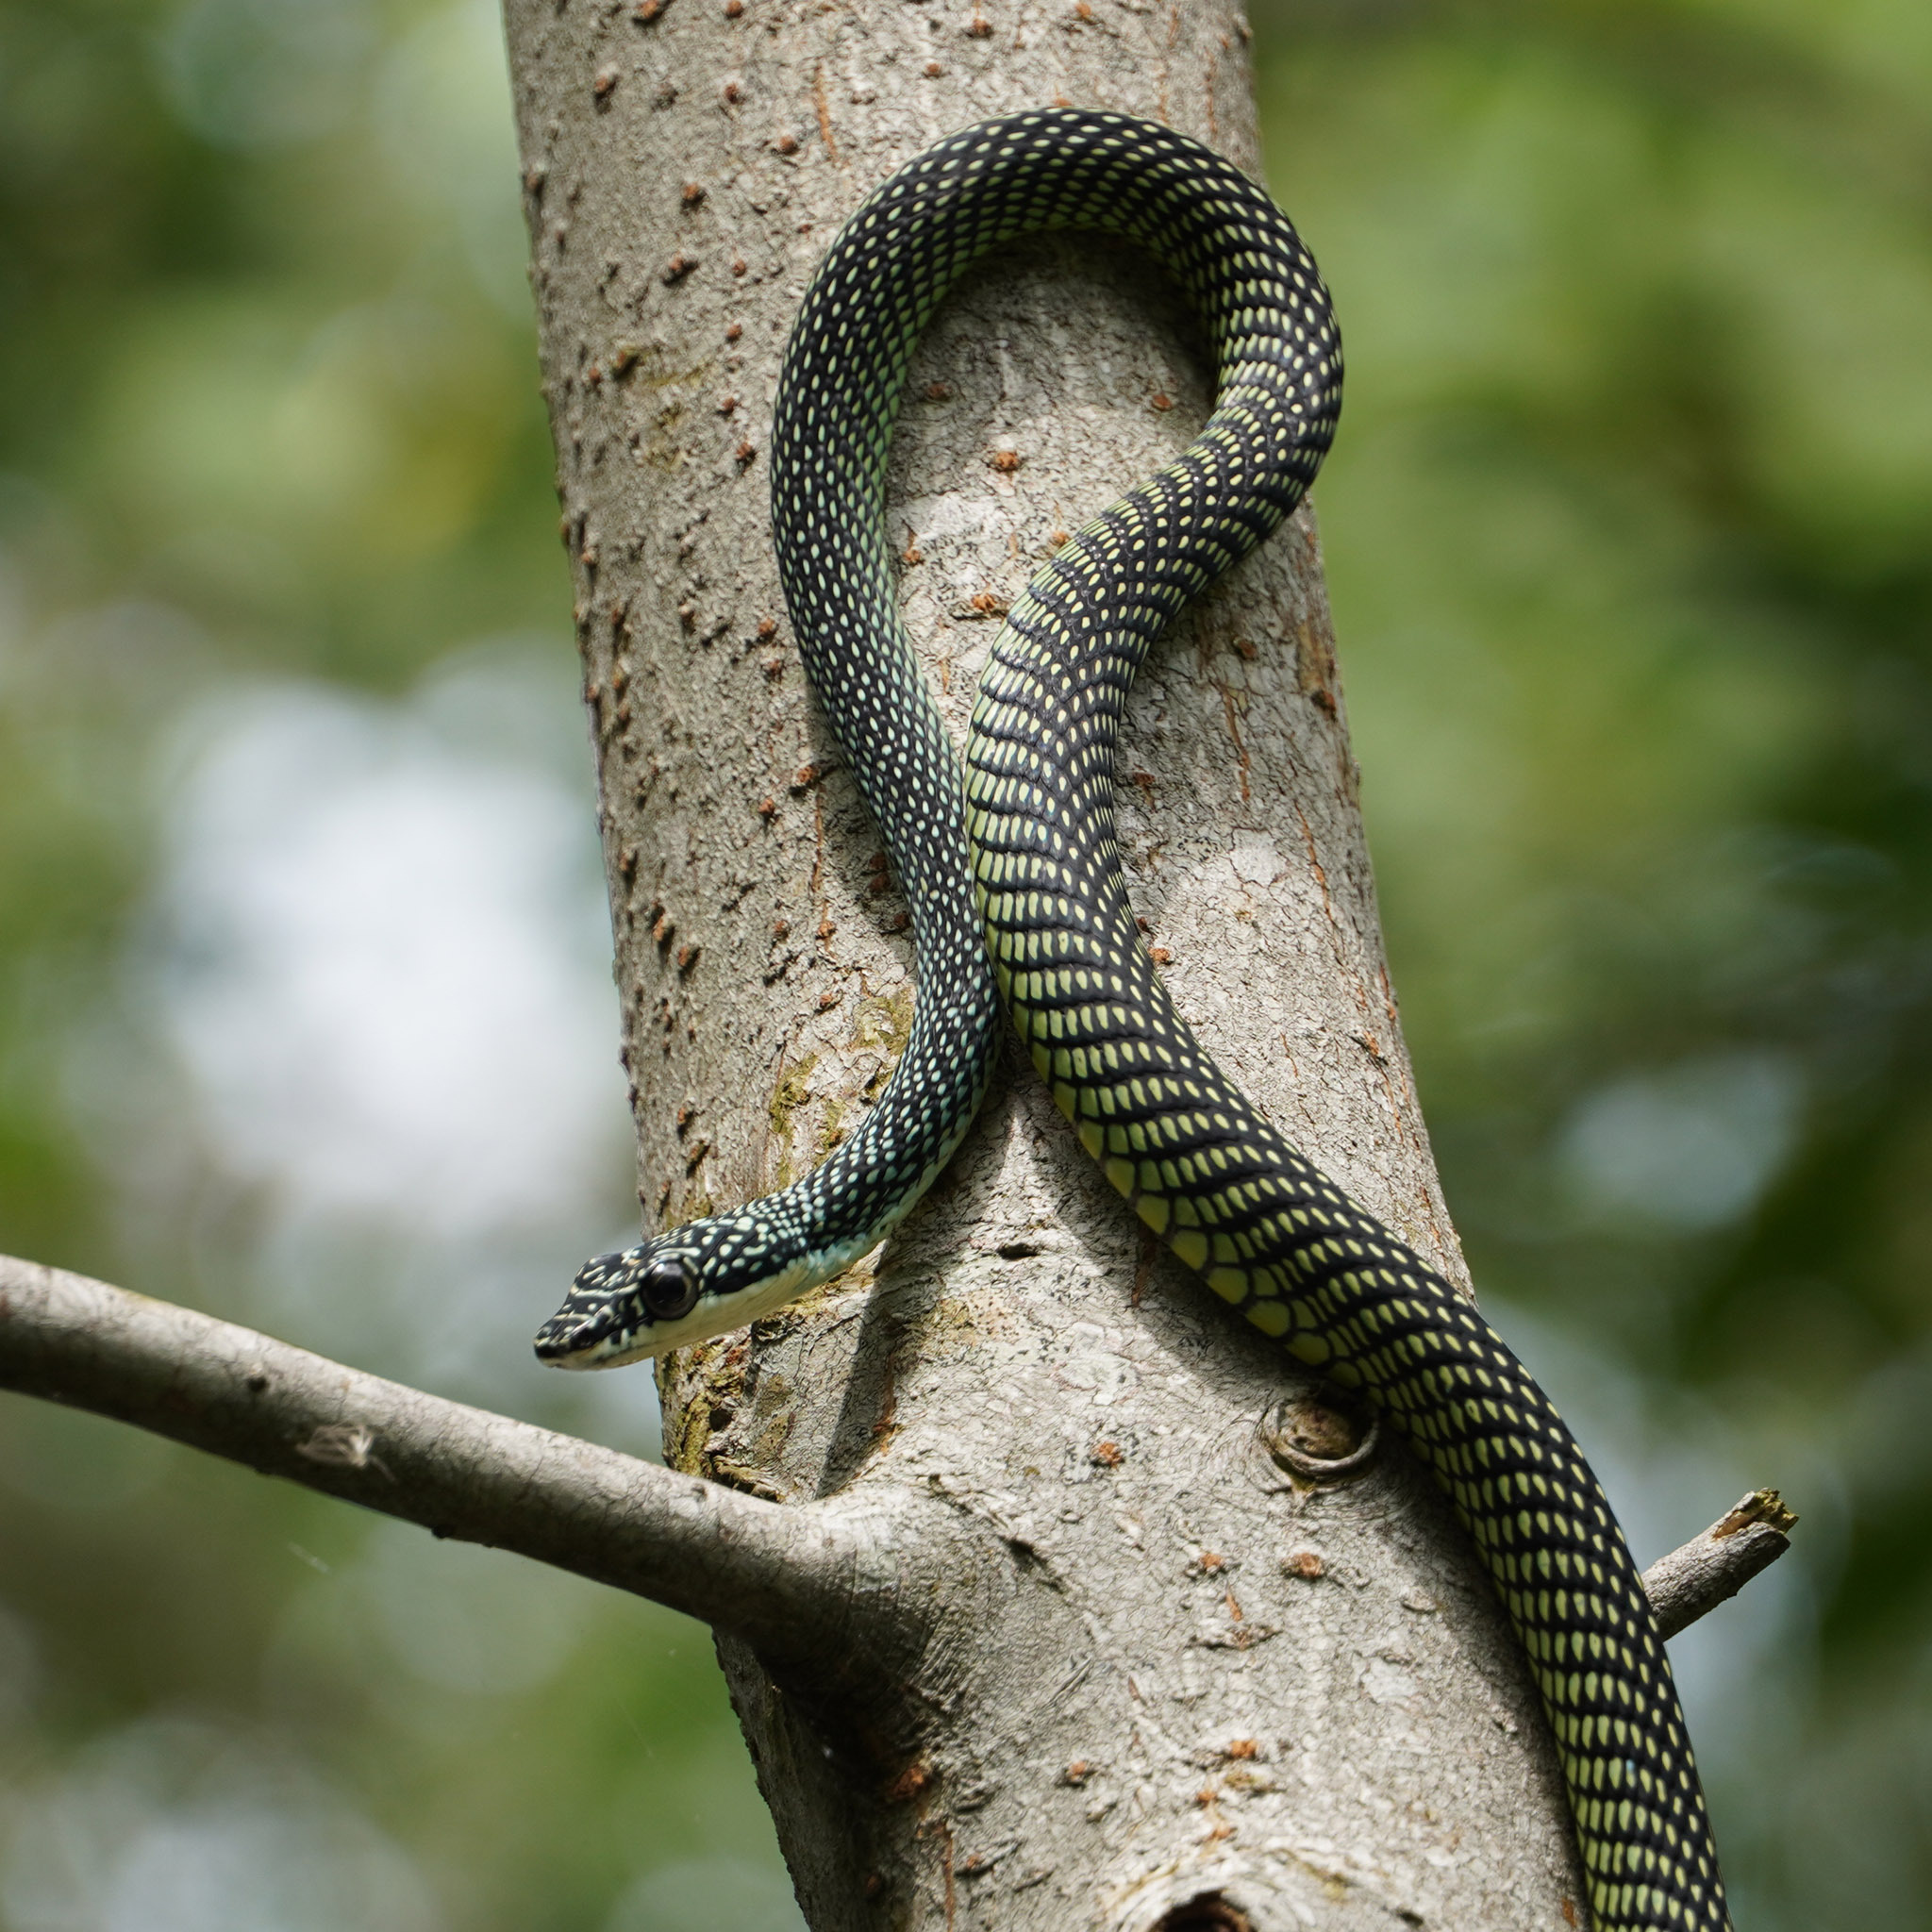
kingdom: Animalia
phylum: Chordata
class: Squamata
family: Colubridae
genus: Chrysopelea
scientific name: Chrysopelea paradisi
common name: Paradise tree snake
